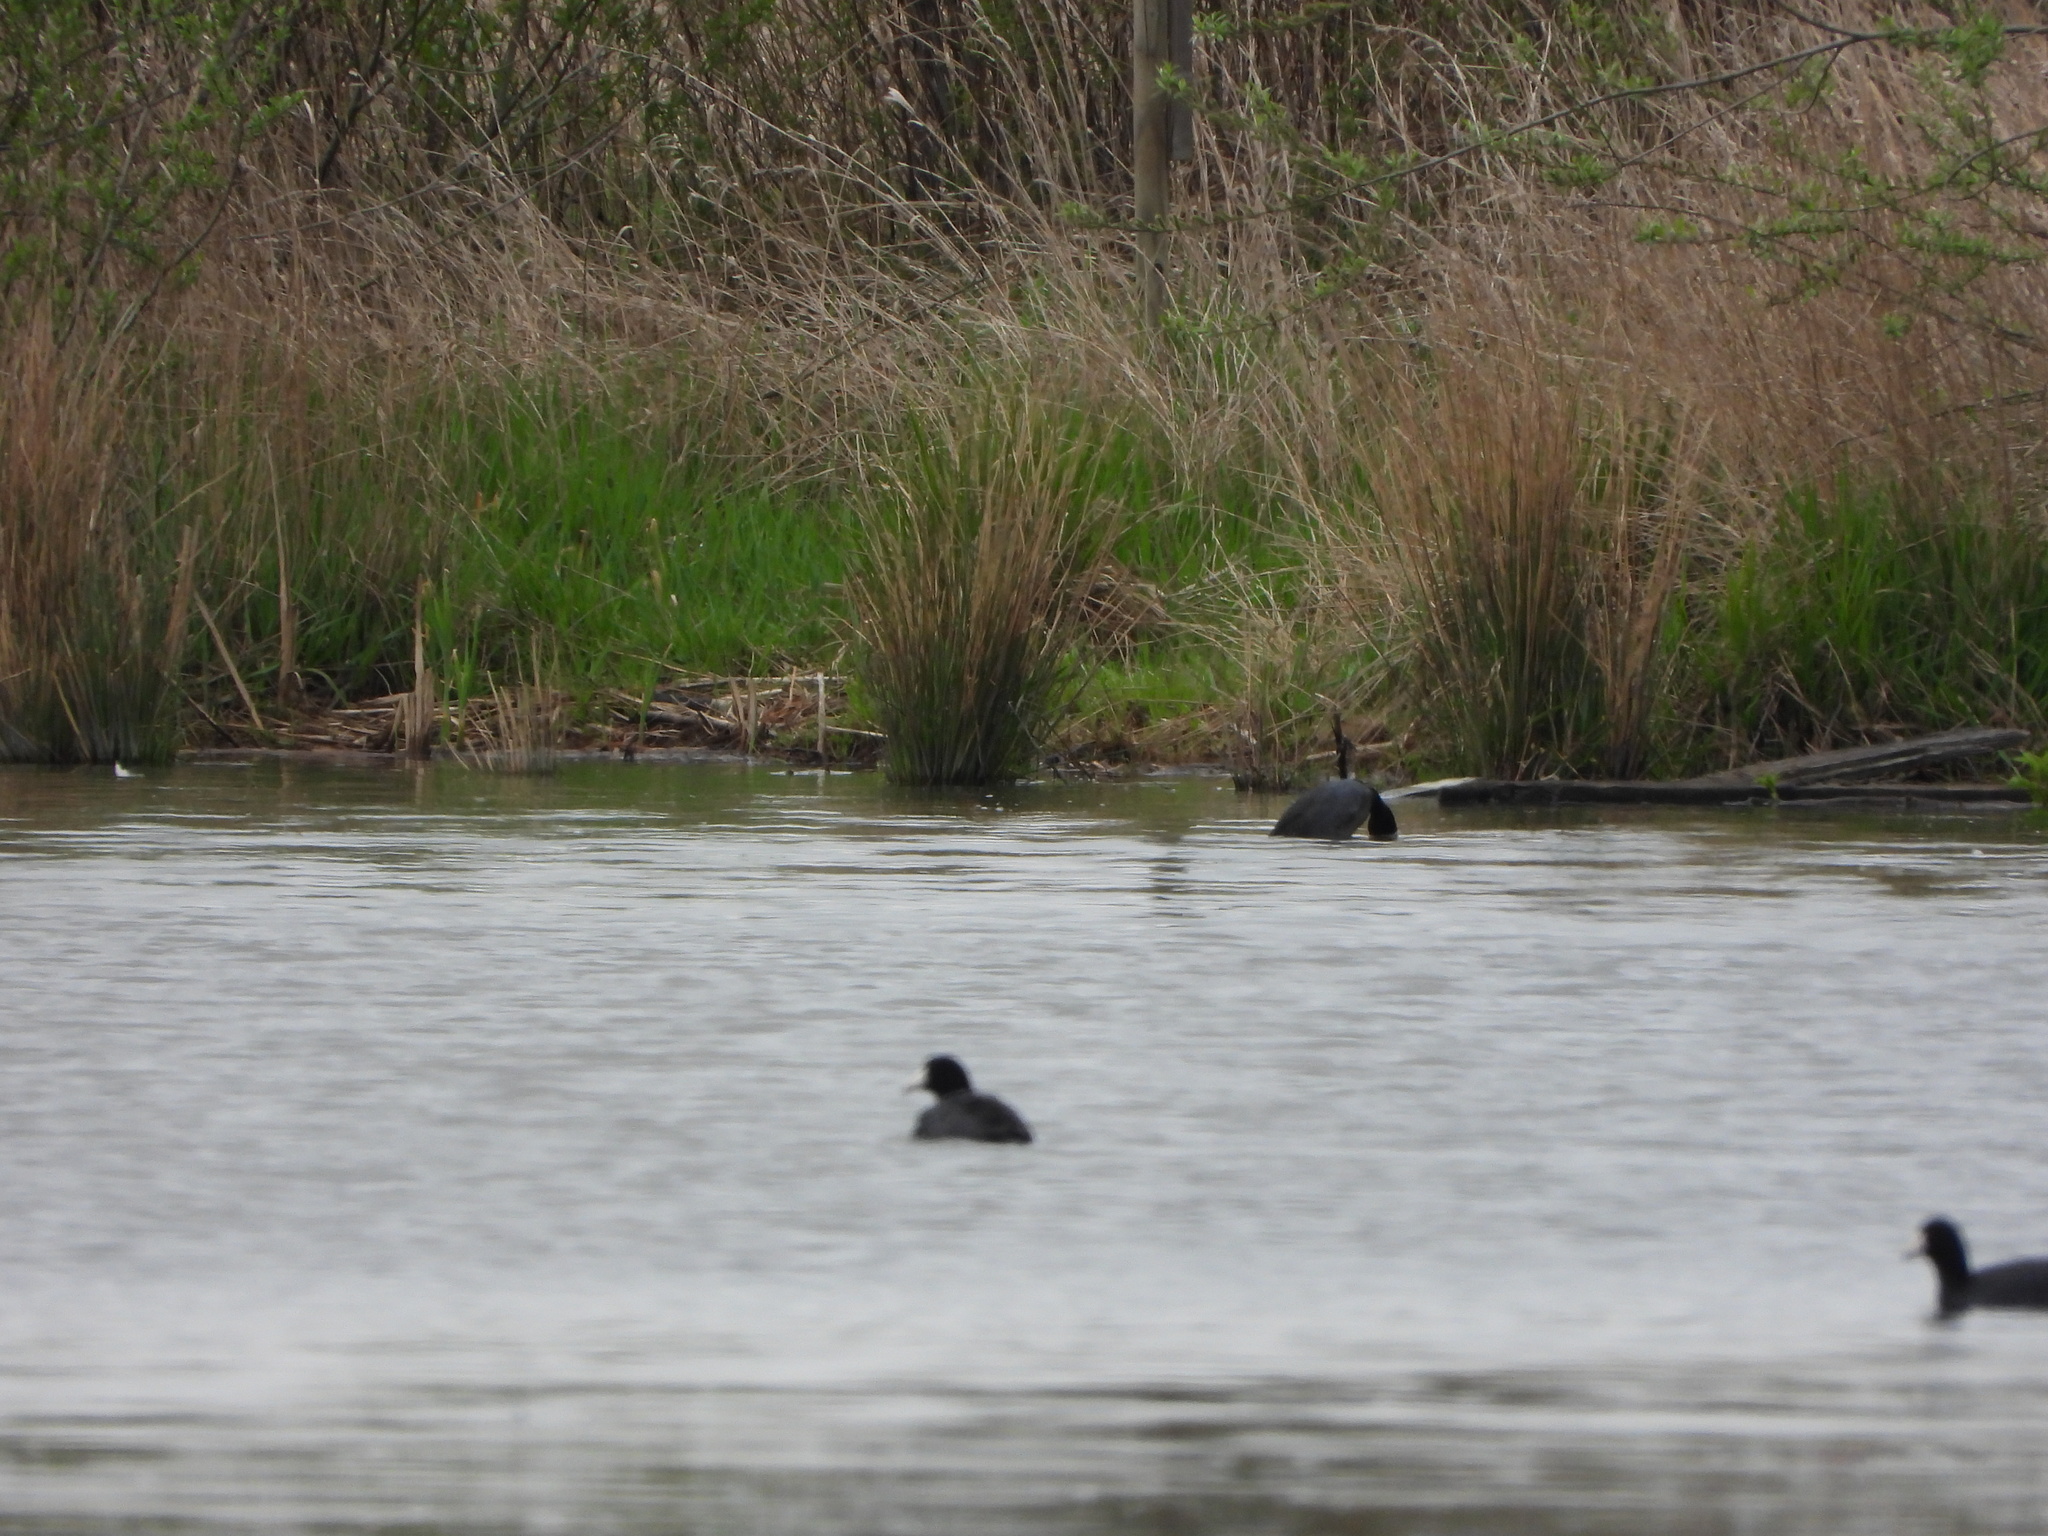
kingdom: Animalia
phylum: Chordata
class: Aves
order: Gruiformes
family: Rallidae
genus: Fulica
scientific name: Fulica americana
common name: American coot
